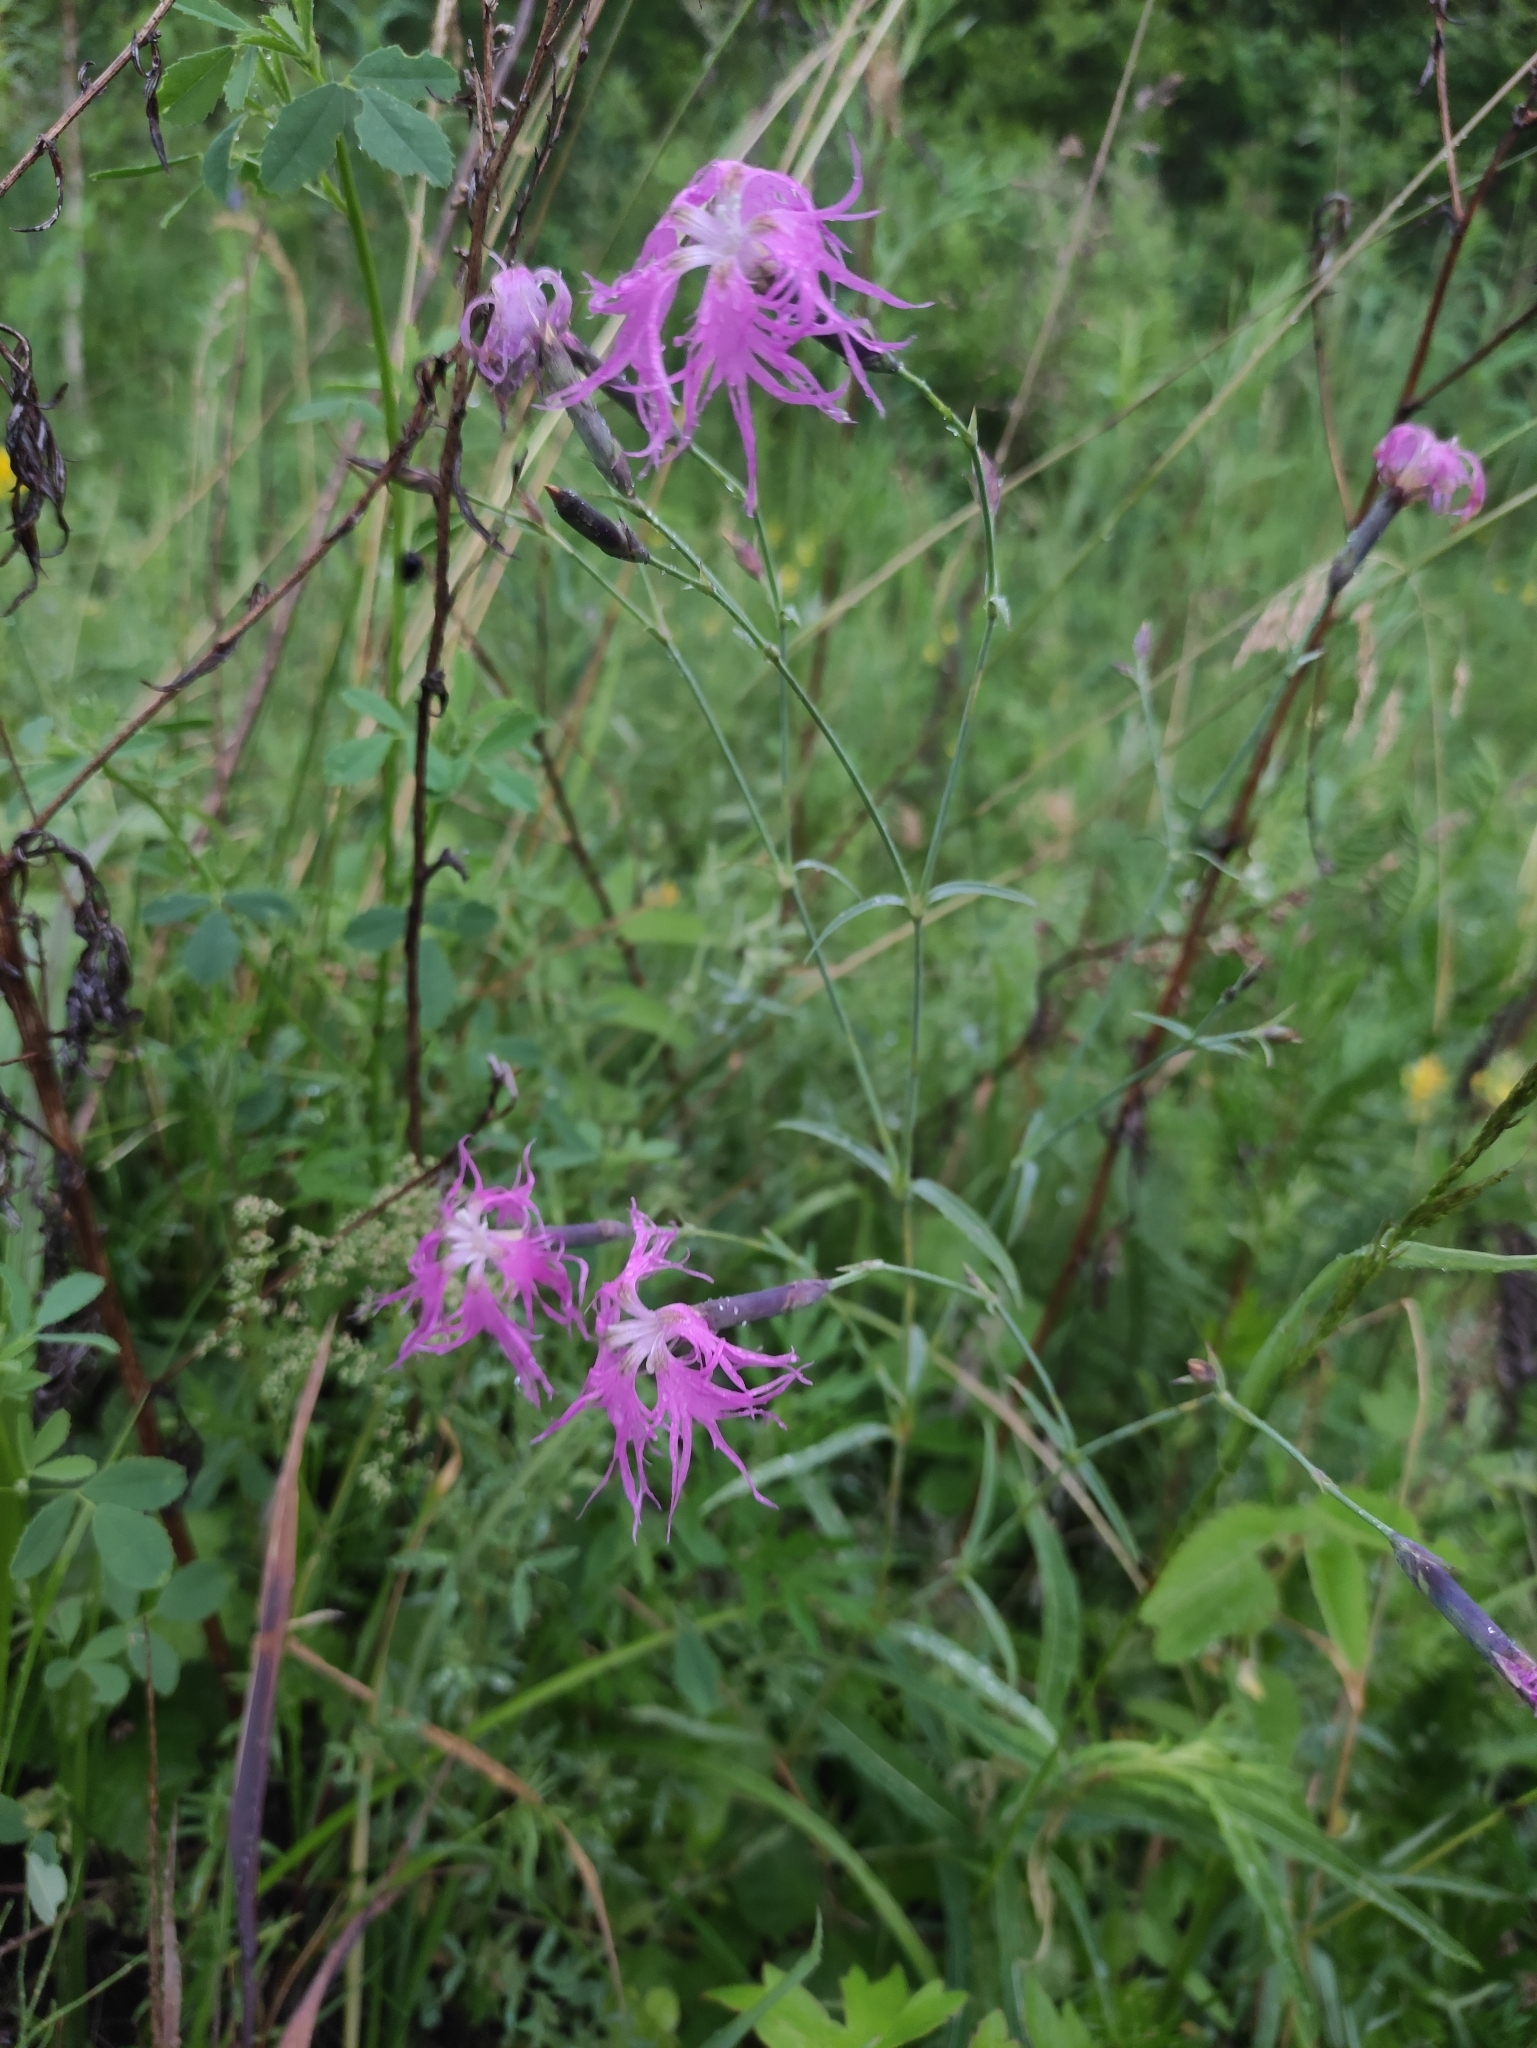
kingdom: Plantae
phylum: Tracheophyta
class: Magnoliopsida
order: Caryophyllales
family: Caryophyllaceae
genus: Dianthus
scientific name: Dianthus superbus
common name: Fringed pink
